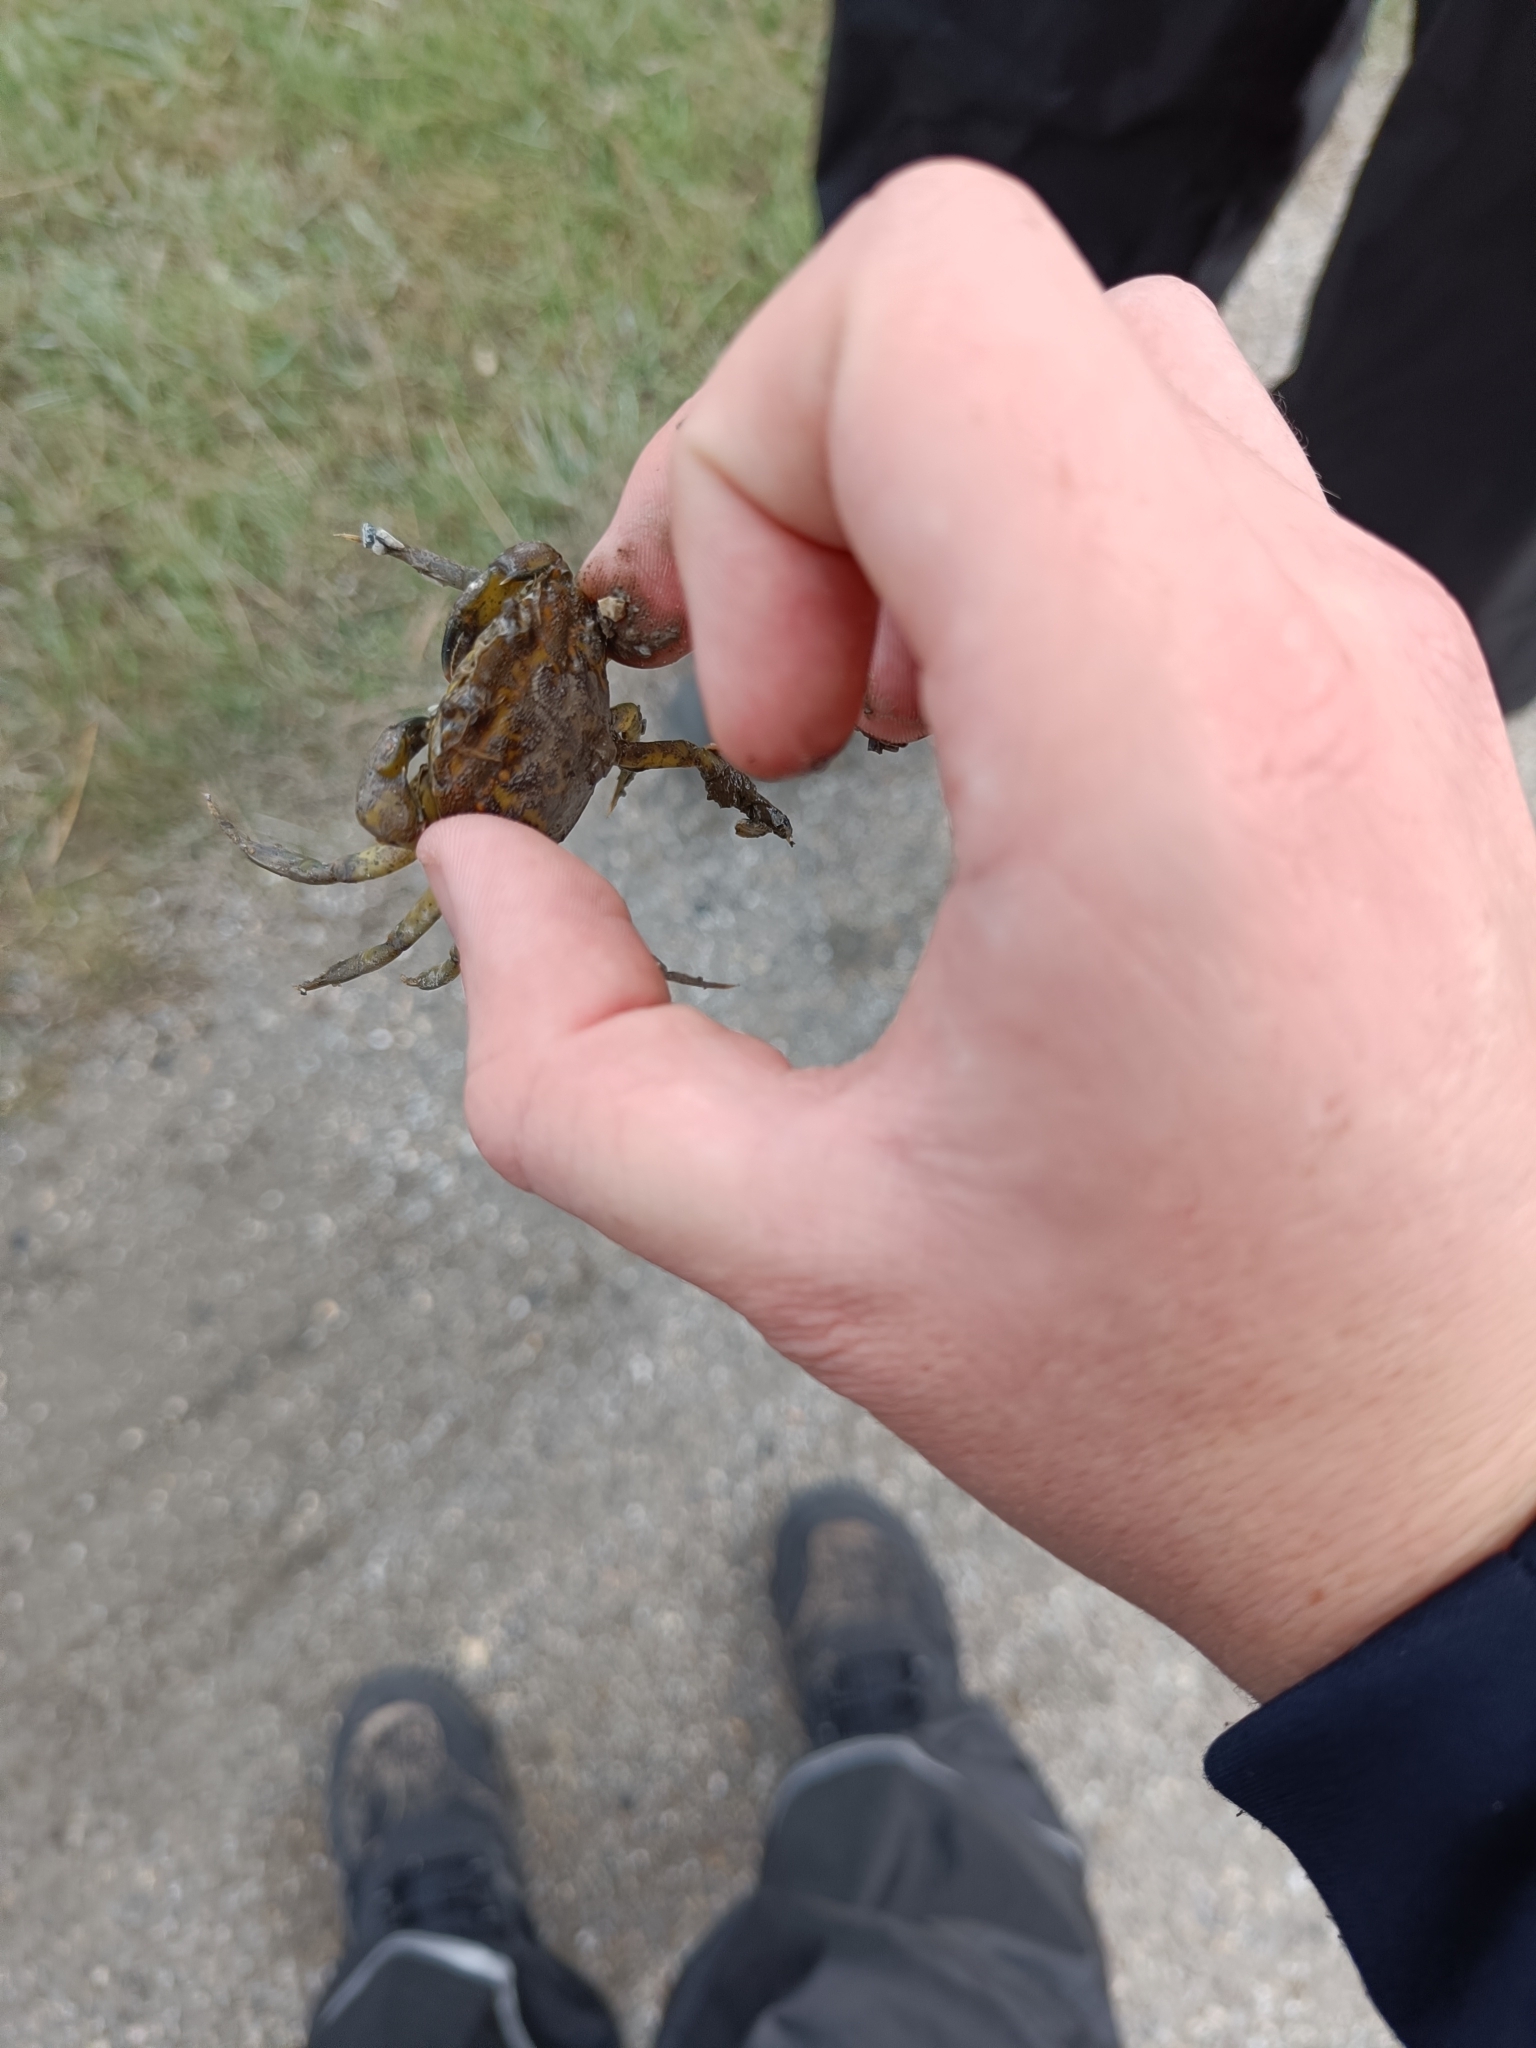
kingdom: Animalia
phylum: Arthropoda
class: Malacostraca
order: Decapoda
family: Carcinidae
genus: Carcinus
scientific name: Carcinus maenas
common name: European green crab
